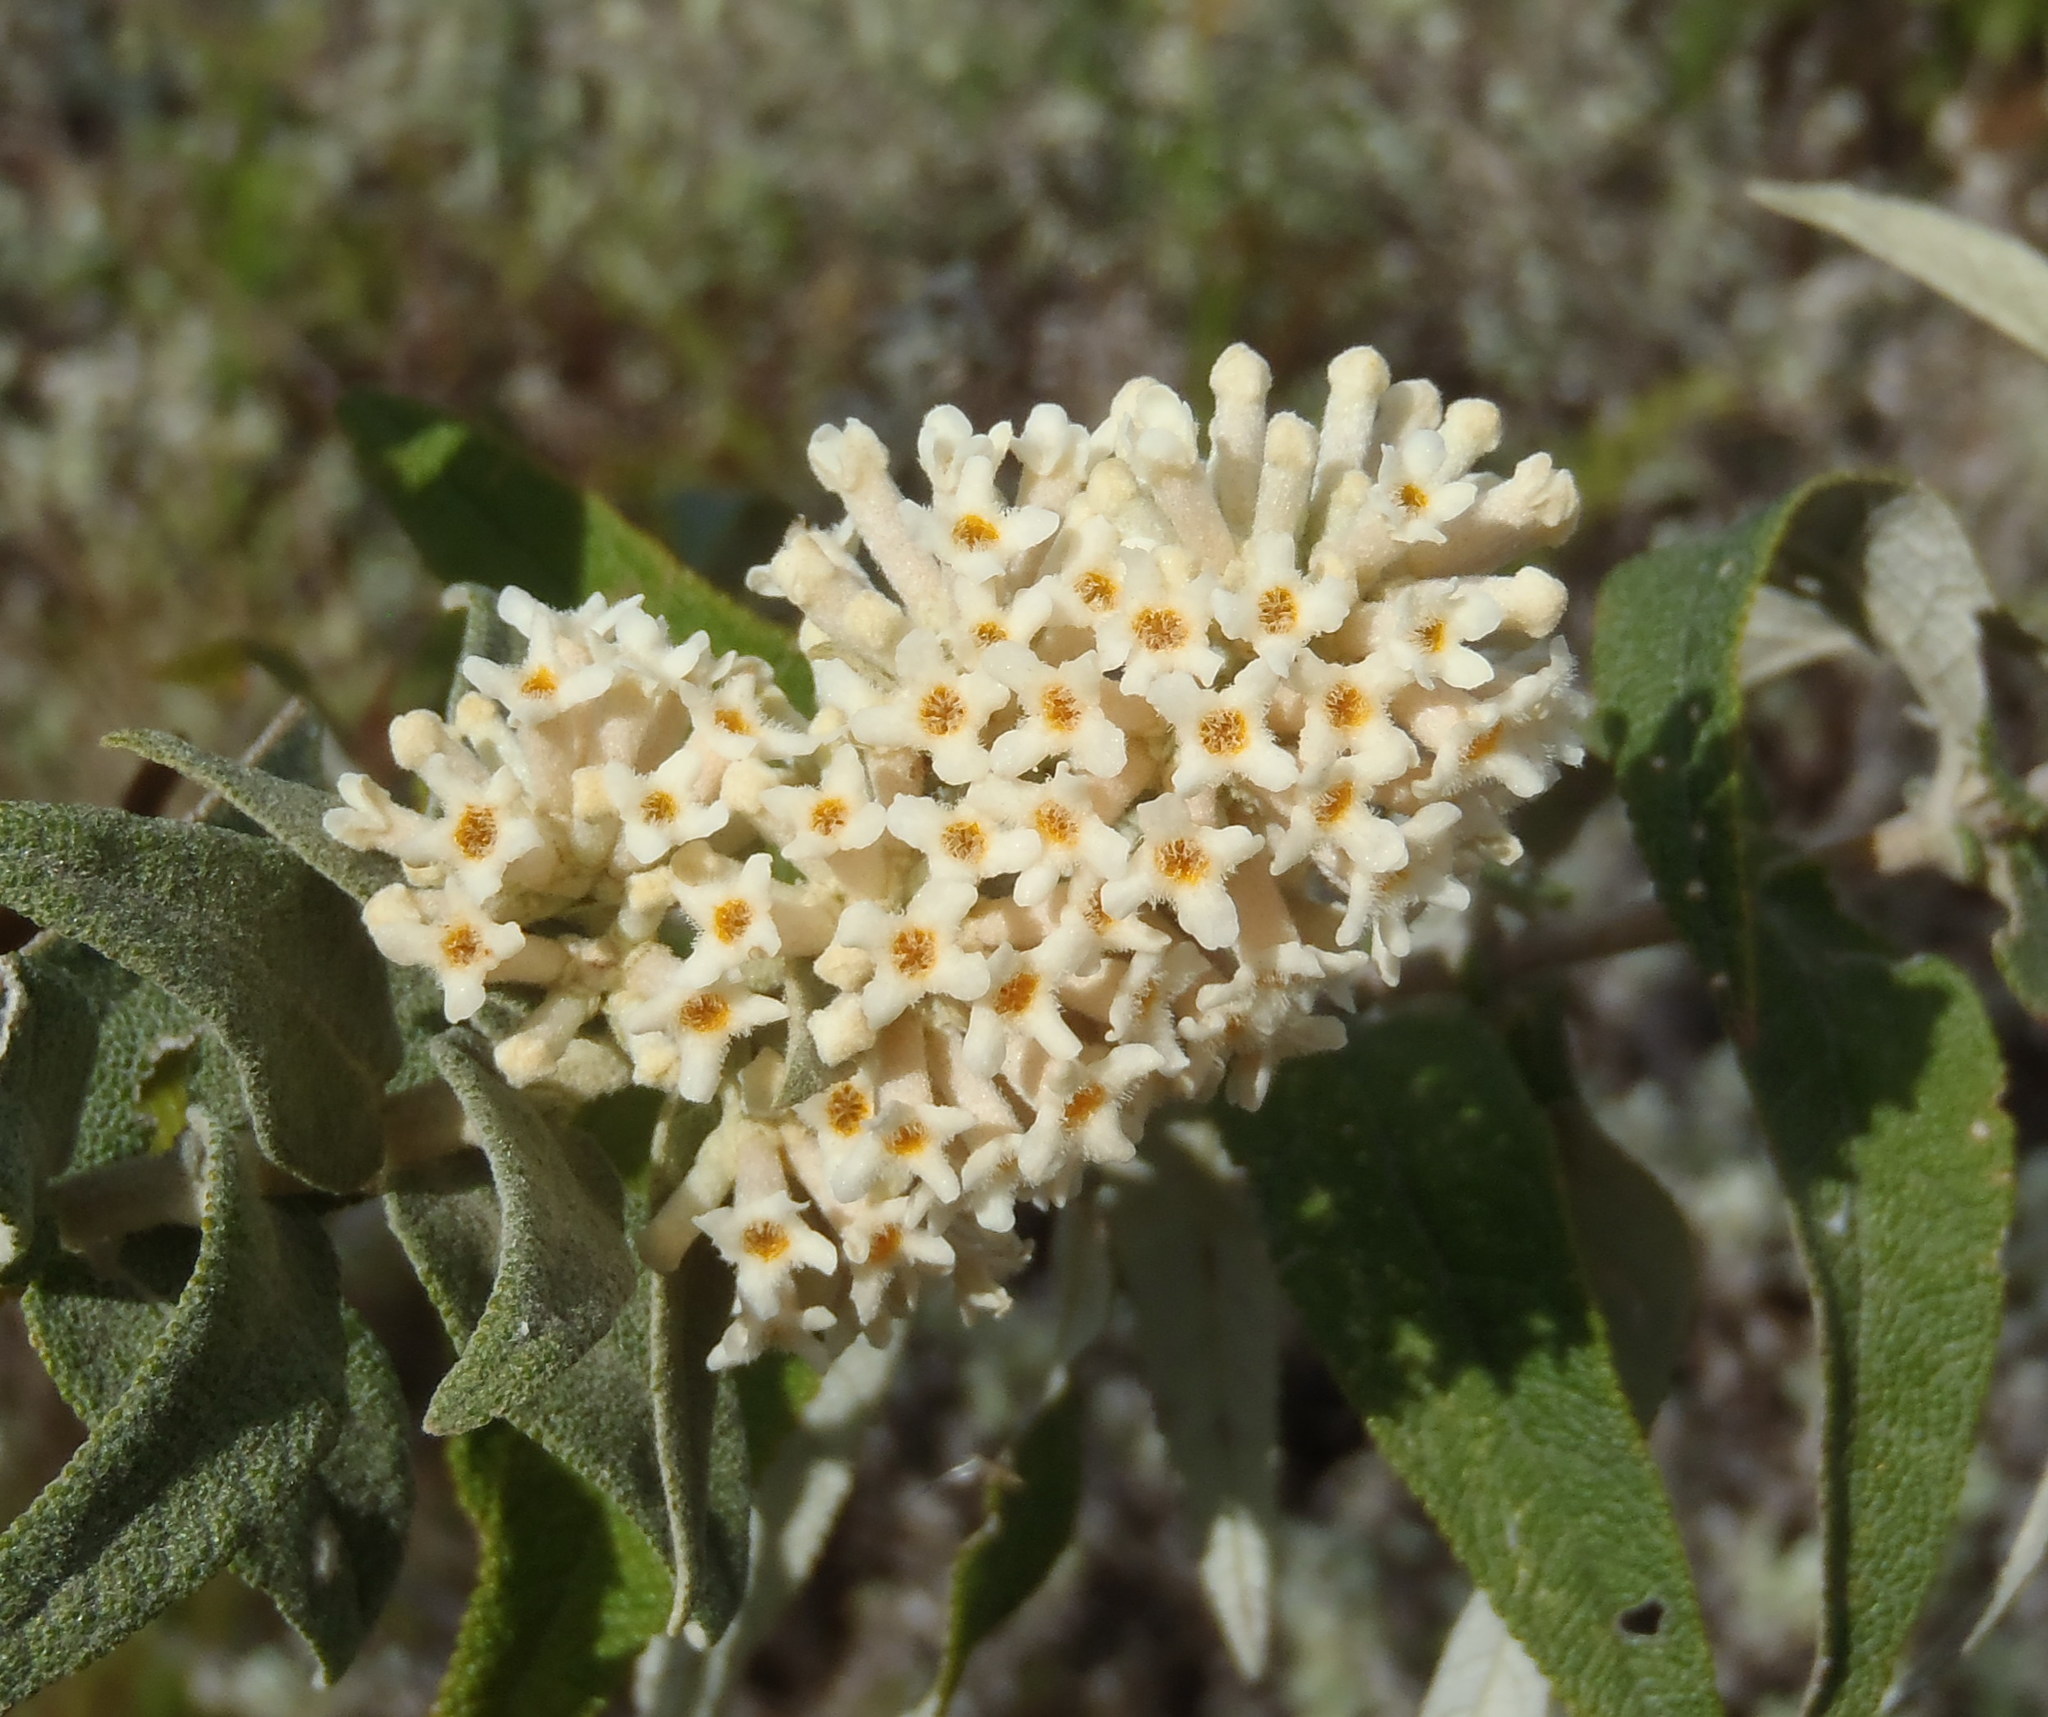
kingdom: Plantae
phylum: Tracheophyta
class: Magnoliopsida
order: Lamiales
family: Scrophulariaceae
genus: Buddleja
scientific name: Buddleja salviifolia
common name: Sagewood
